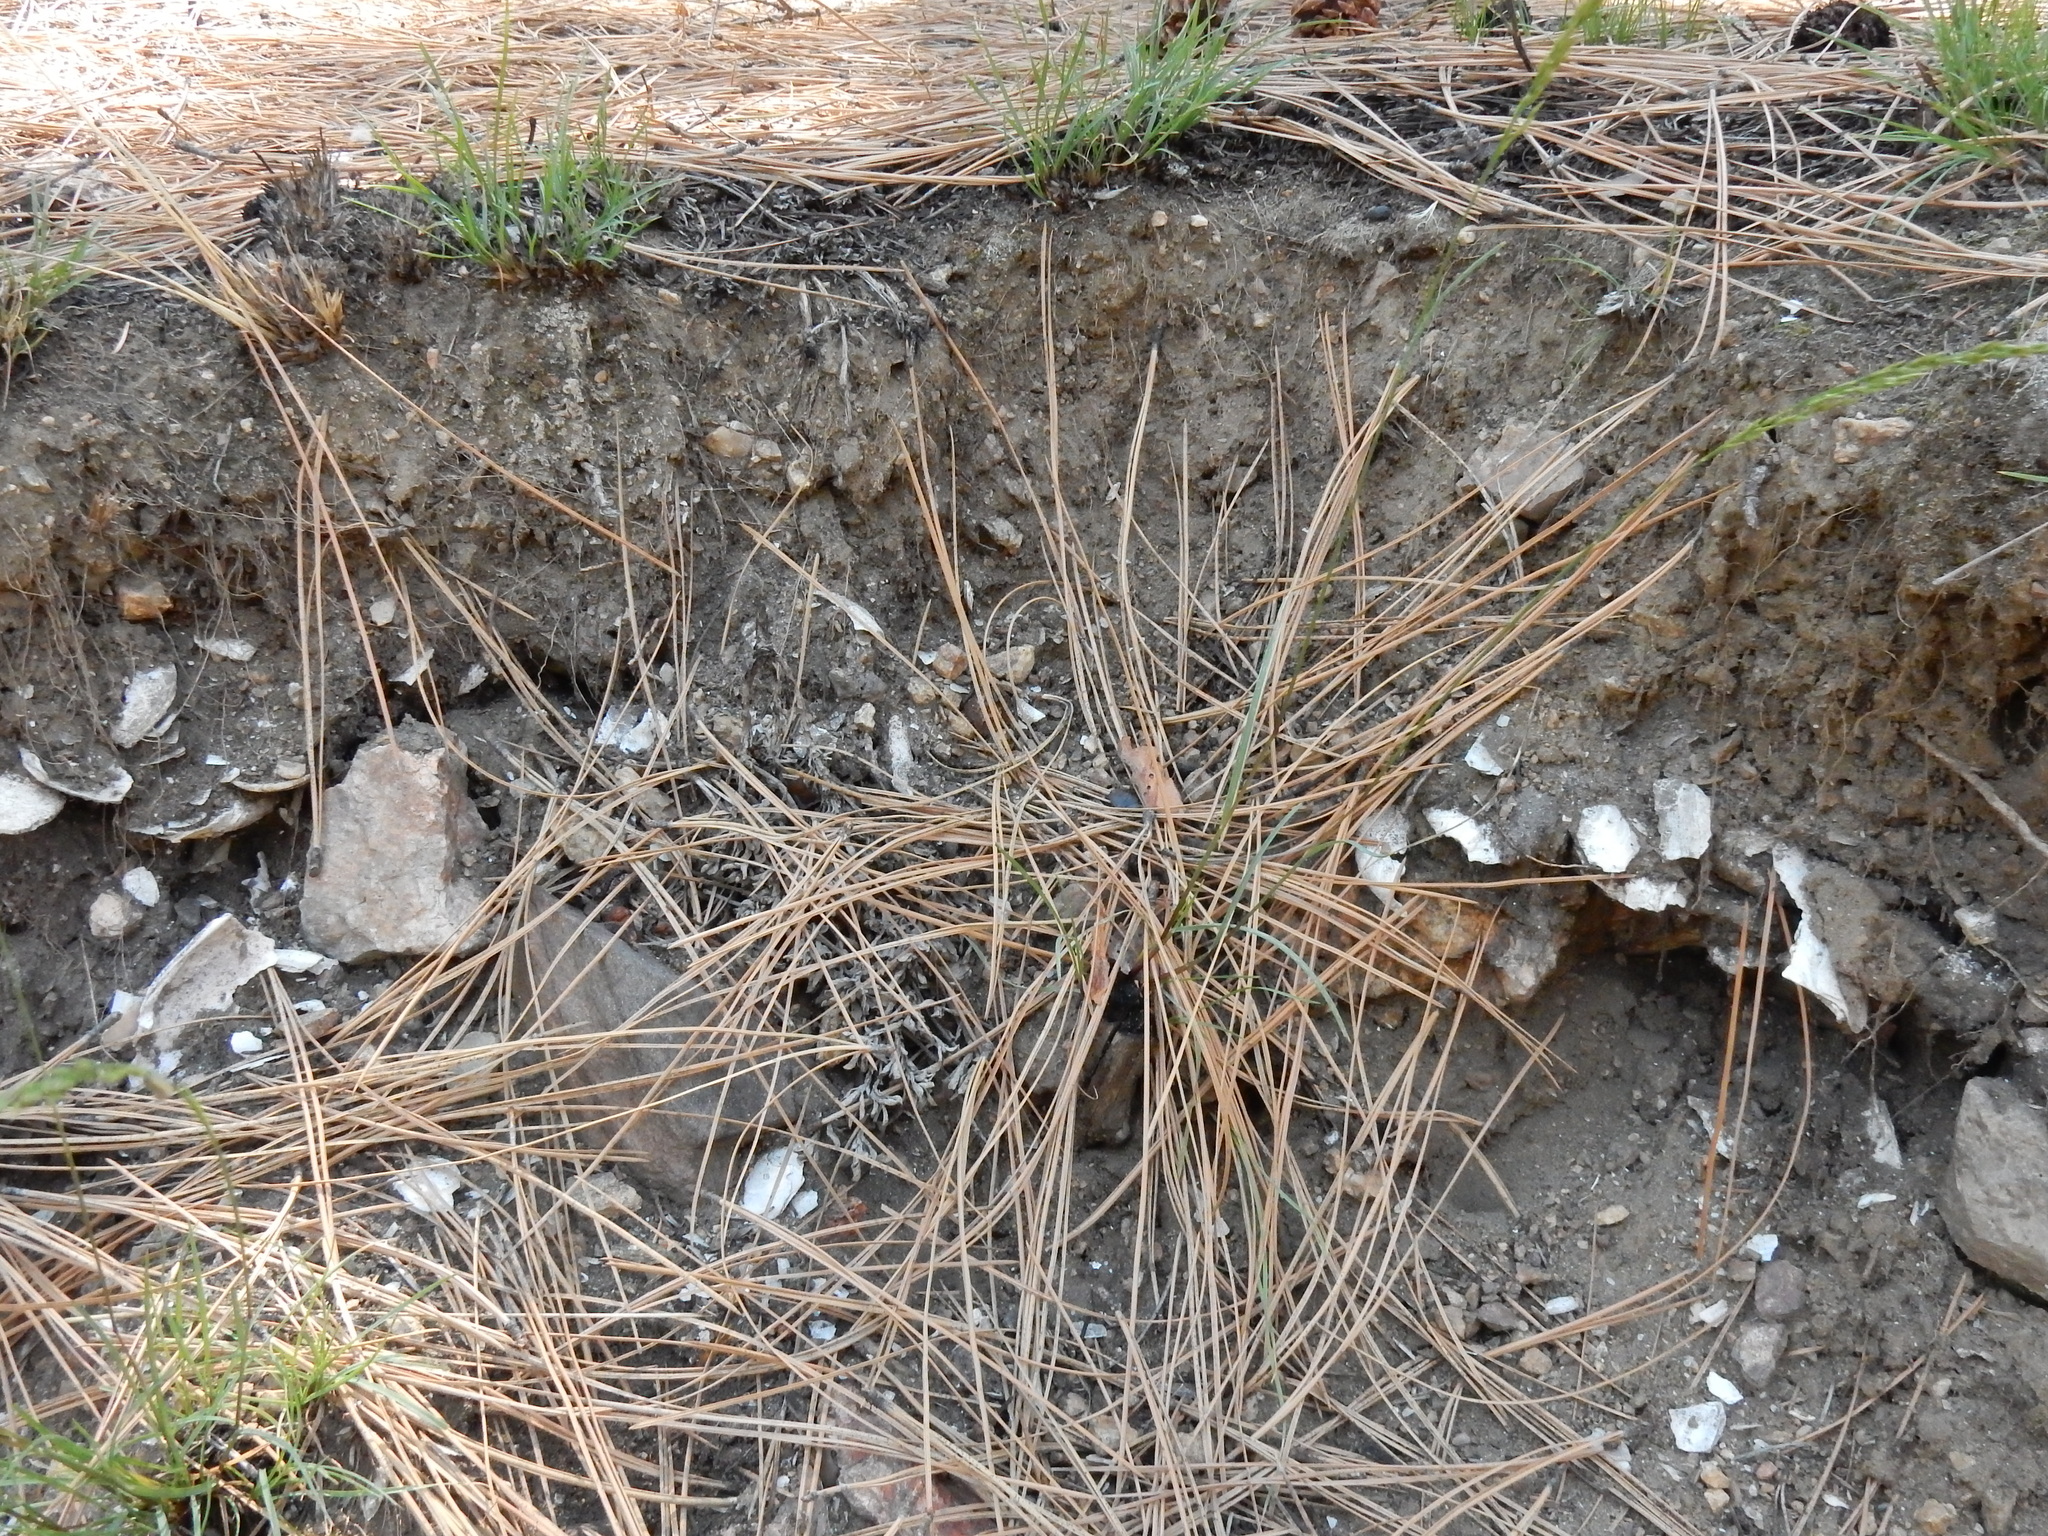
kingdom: Animalia
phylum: Mollusca
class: Bivalvia
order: Unionida
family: Margaritiferidae
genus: Margaritifera
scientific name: Margaritifera falcata
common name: Western pearlshell
